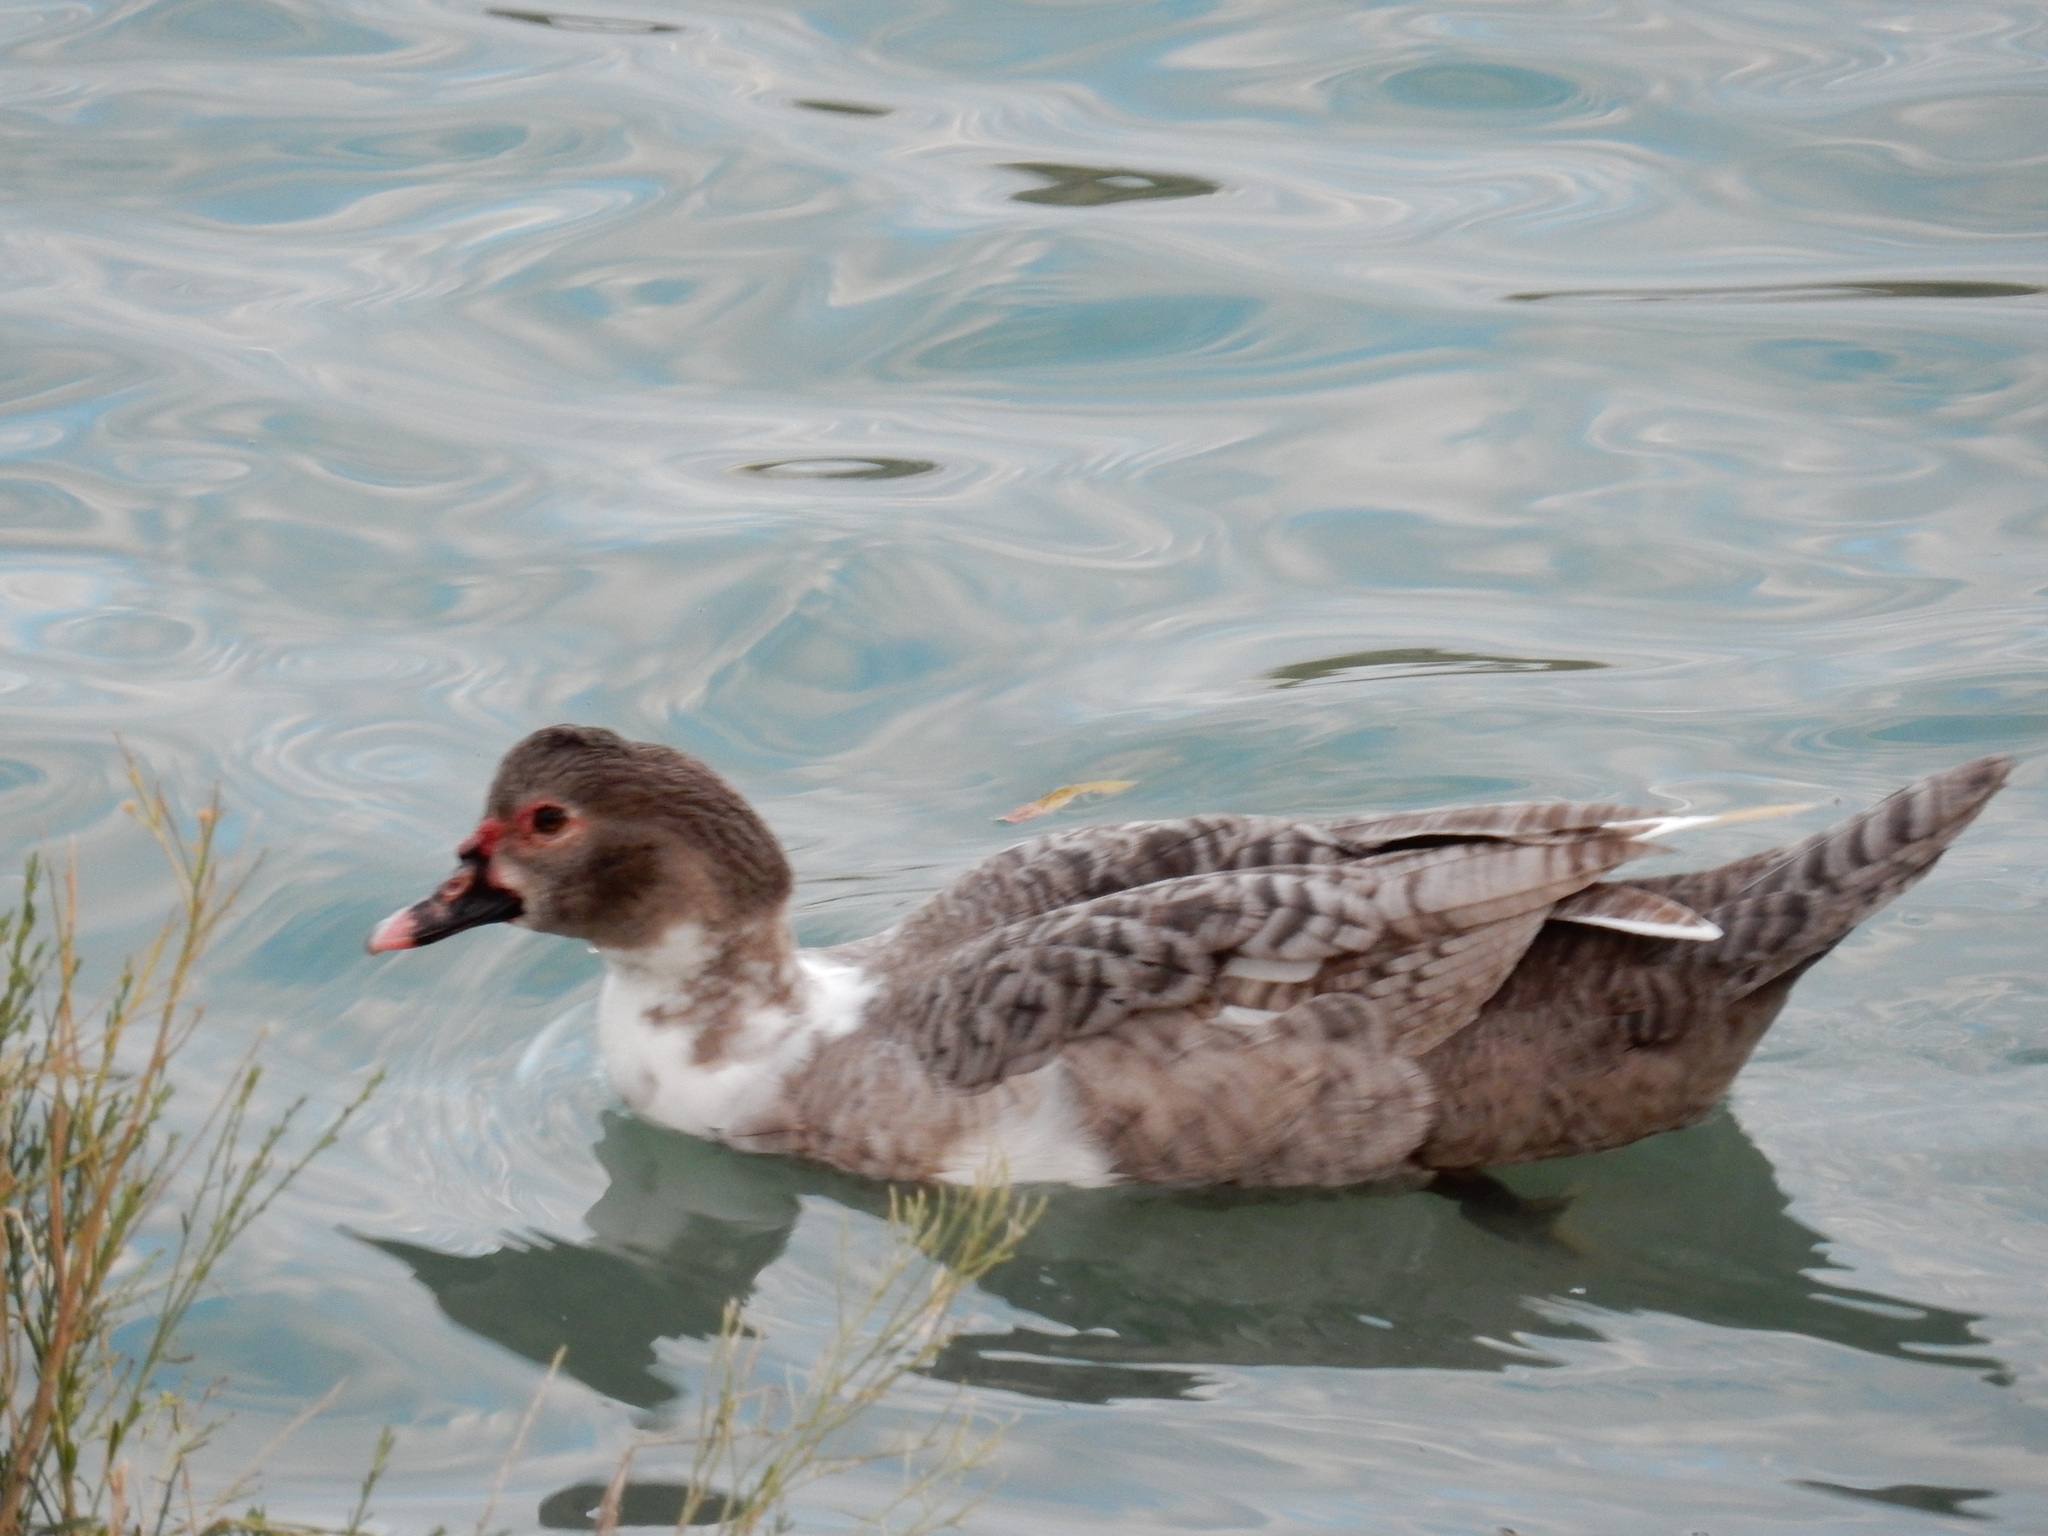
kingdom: Animalia
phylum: Chordata
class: Aves
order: Anseriformes
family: Anatidae
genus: Cairina
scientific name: Cairina moschata
